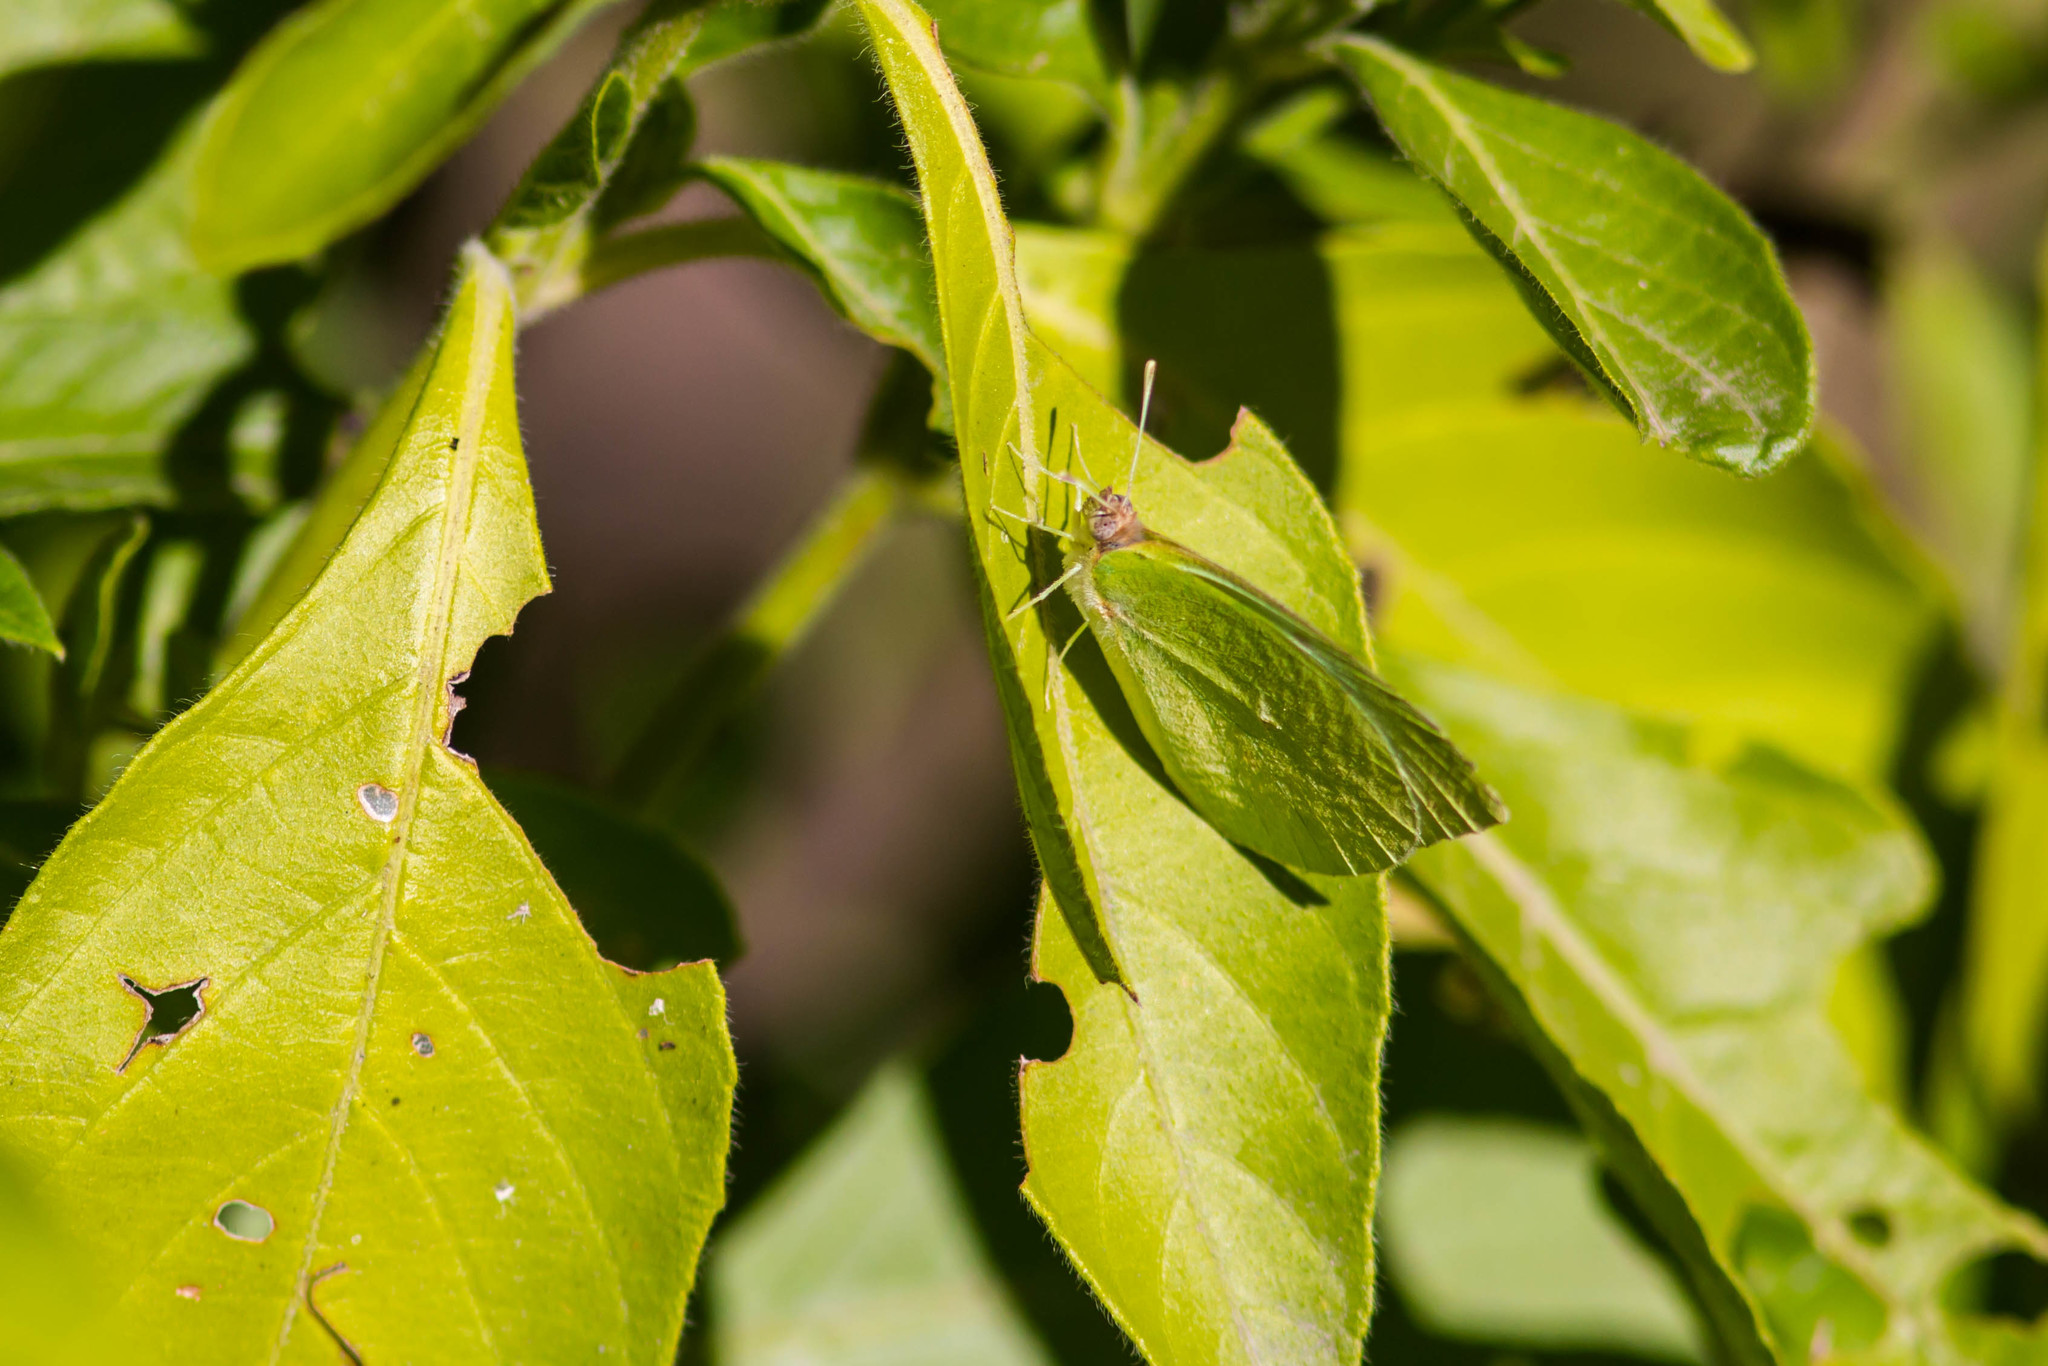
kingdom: Animalia
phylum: Arthropoda
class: Insecta
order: Lepidoptera
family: Pieridae
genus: Kricogonia
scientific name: Kricogonia lyside
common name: Guayacan sulphur,
